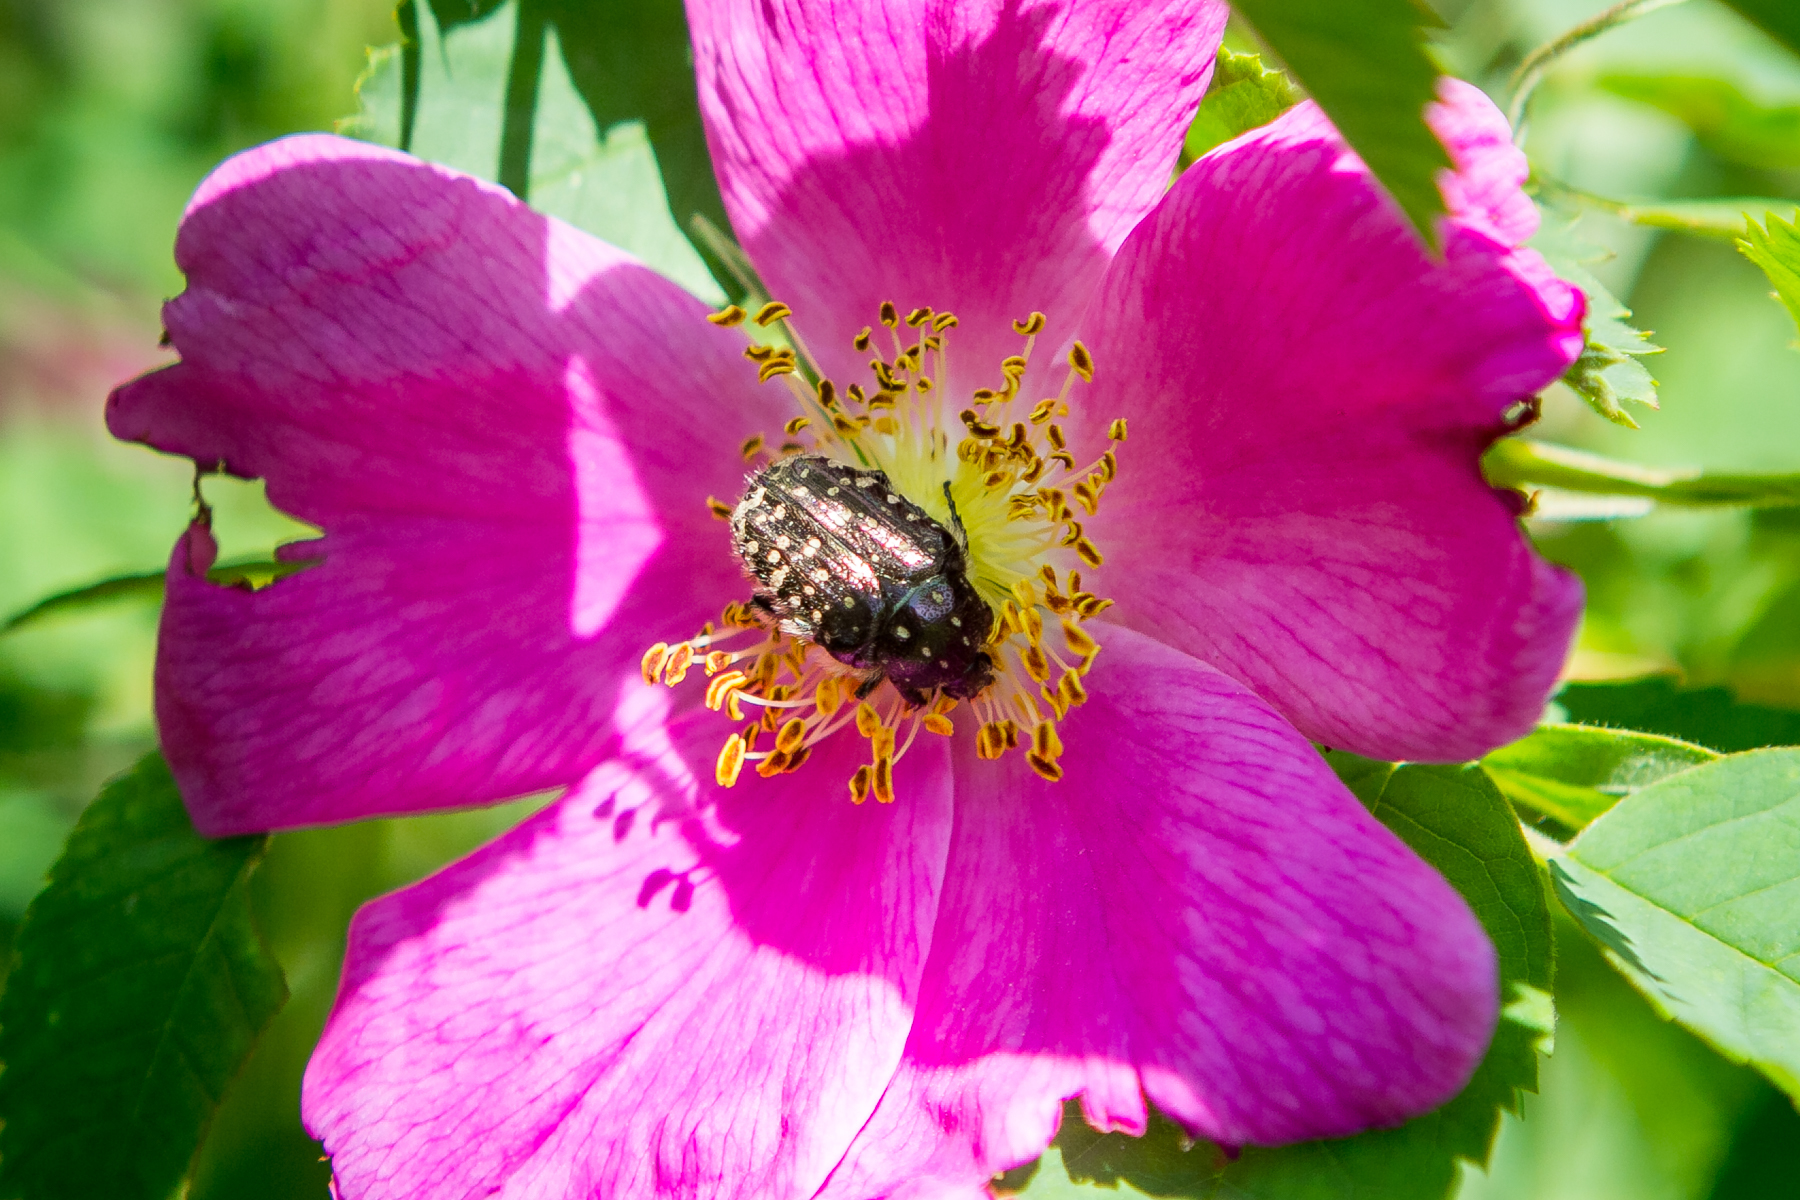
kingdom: Animalia
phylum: Arthropoda
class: Insecta
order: Coleoptera
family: Scarabaeidae
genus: Oxythyrea
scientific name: Oxythyrea funesta
